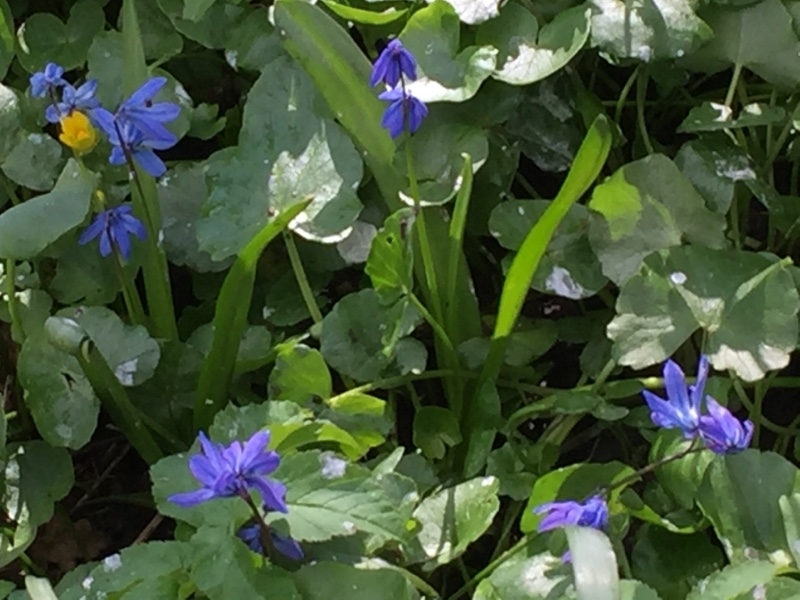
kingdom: Plantae
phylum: Tracheophyta
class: Liliopsida
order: Asparagales
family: Asparagaceae
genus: Scilla
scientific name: Scilla siberica
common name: Siberian squill
